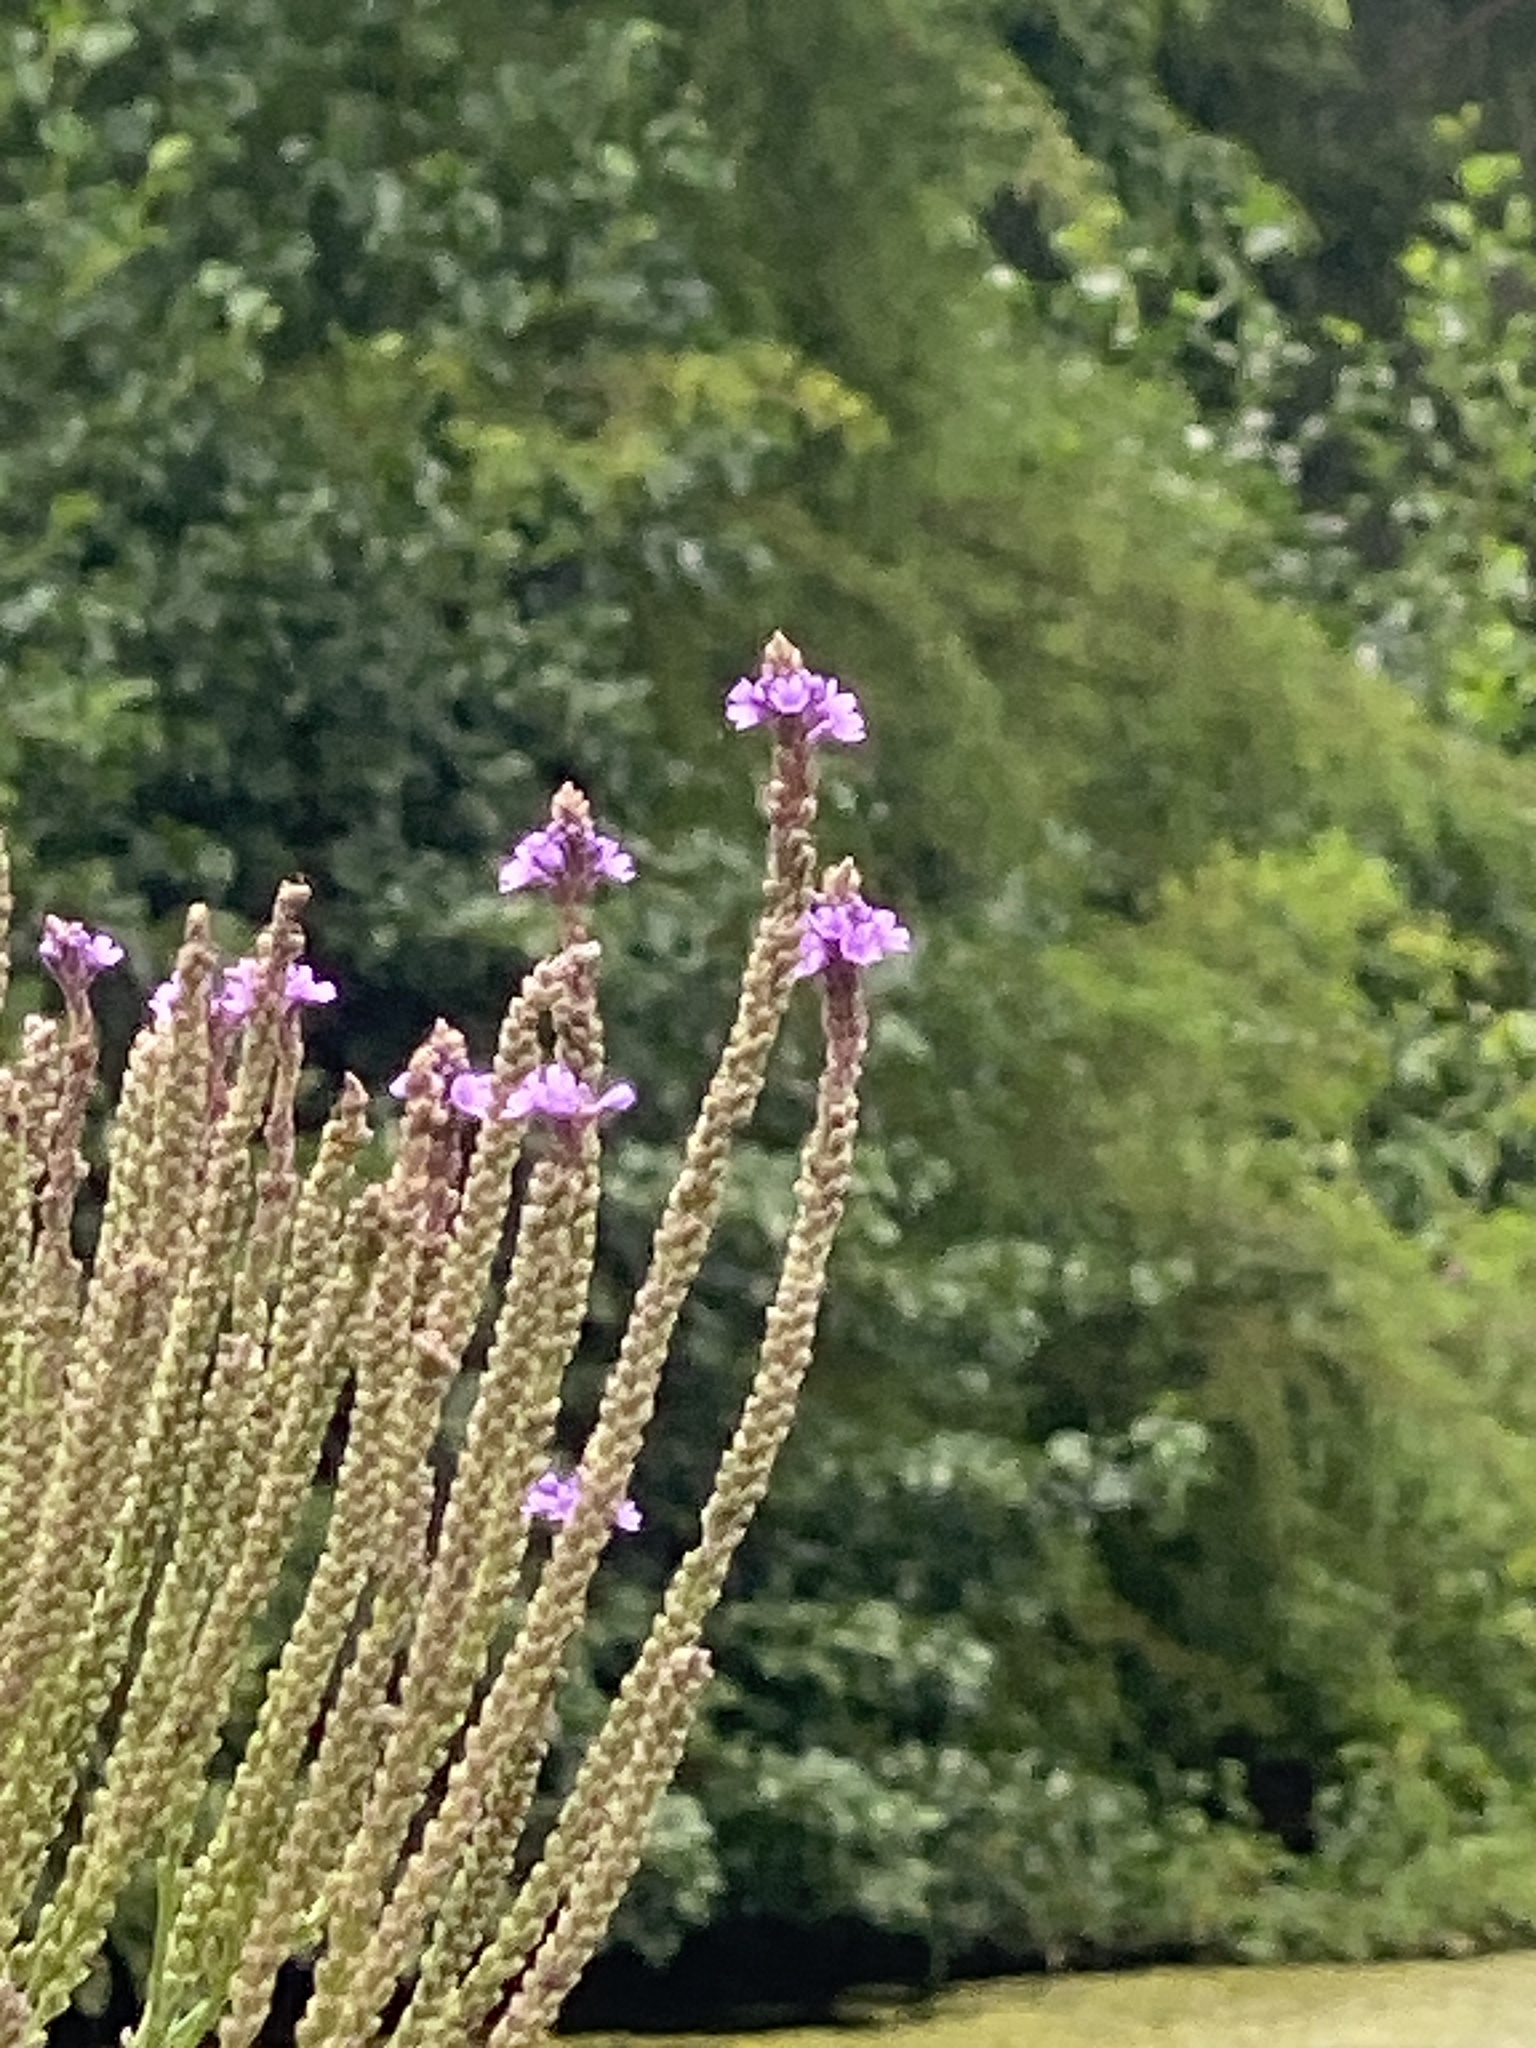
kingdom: Plantae
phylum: Tracheophyta
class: Magnoliopsida
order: Lamiales
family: Verbenaceae
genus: Verbena
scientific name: Verbena hastata
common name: American blue vervain
